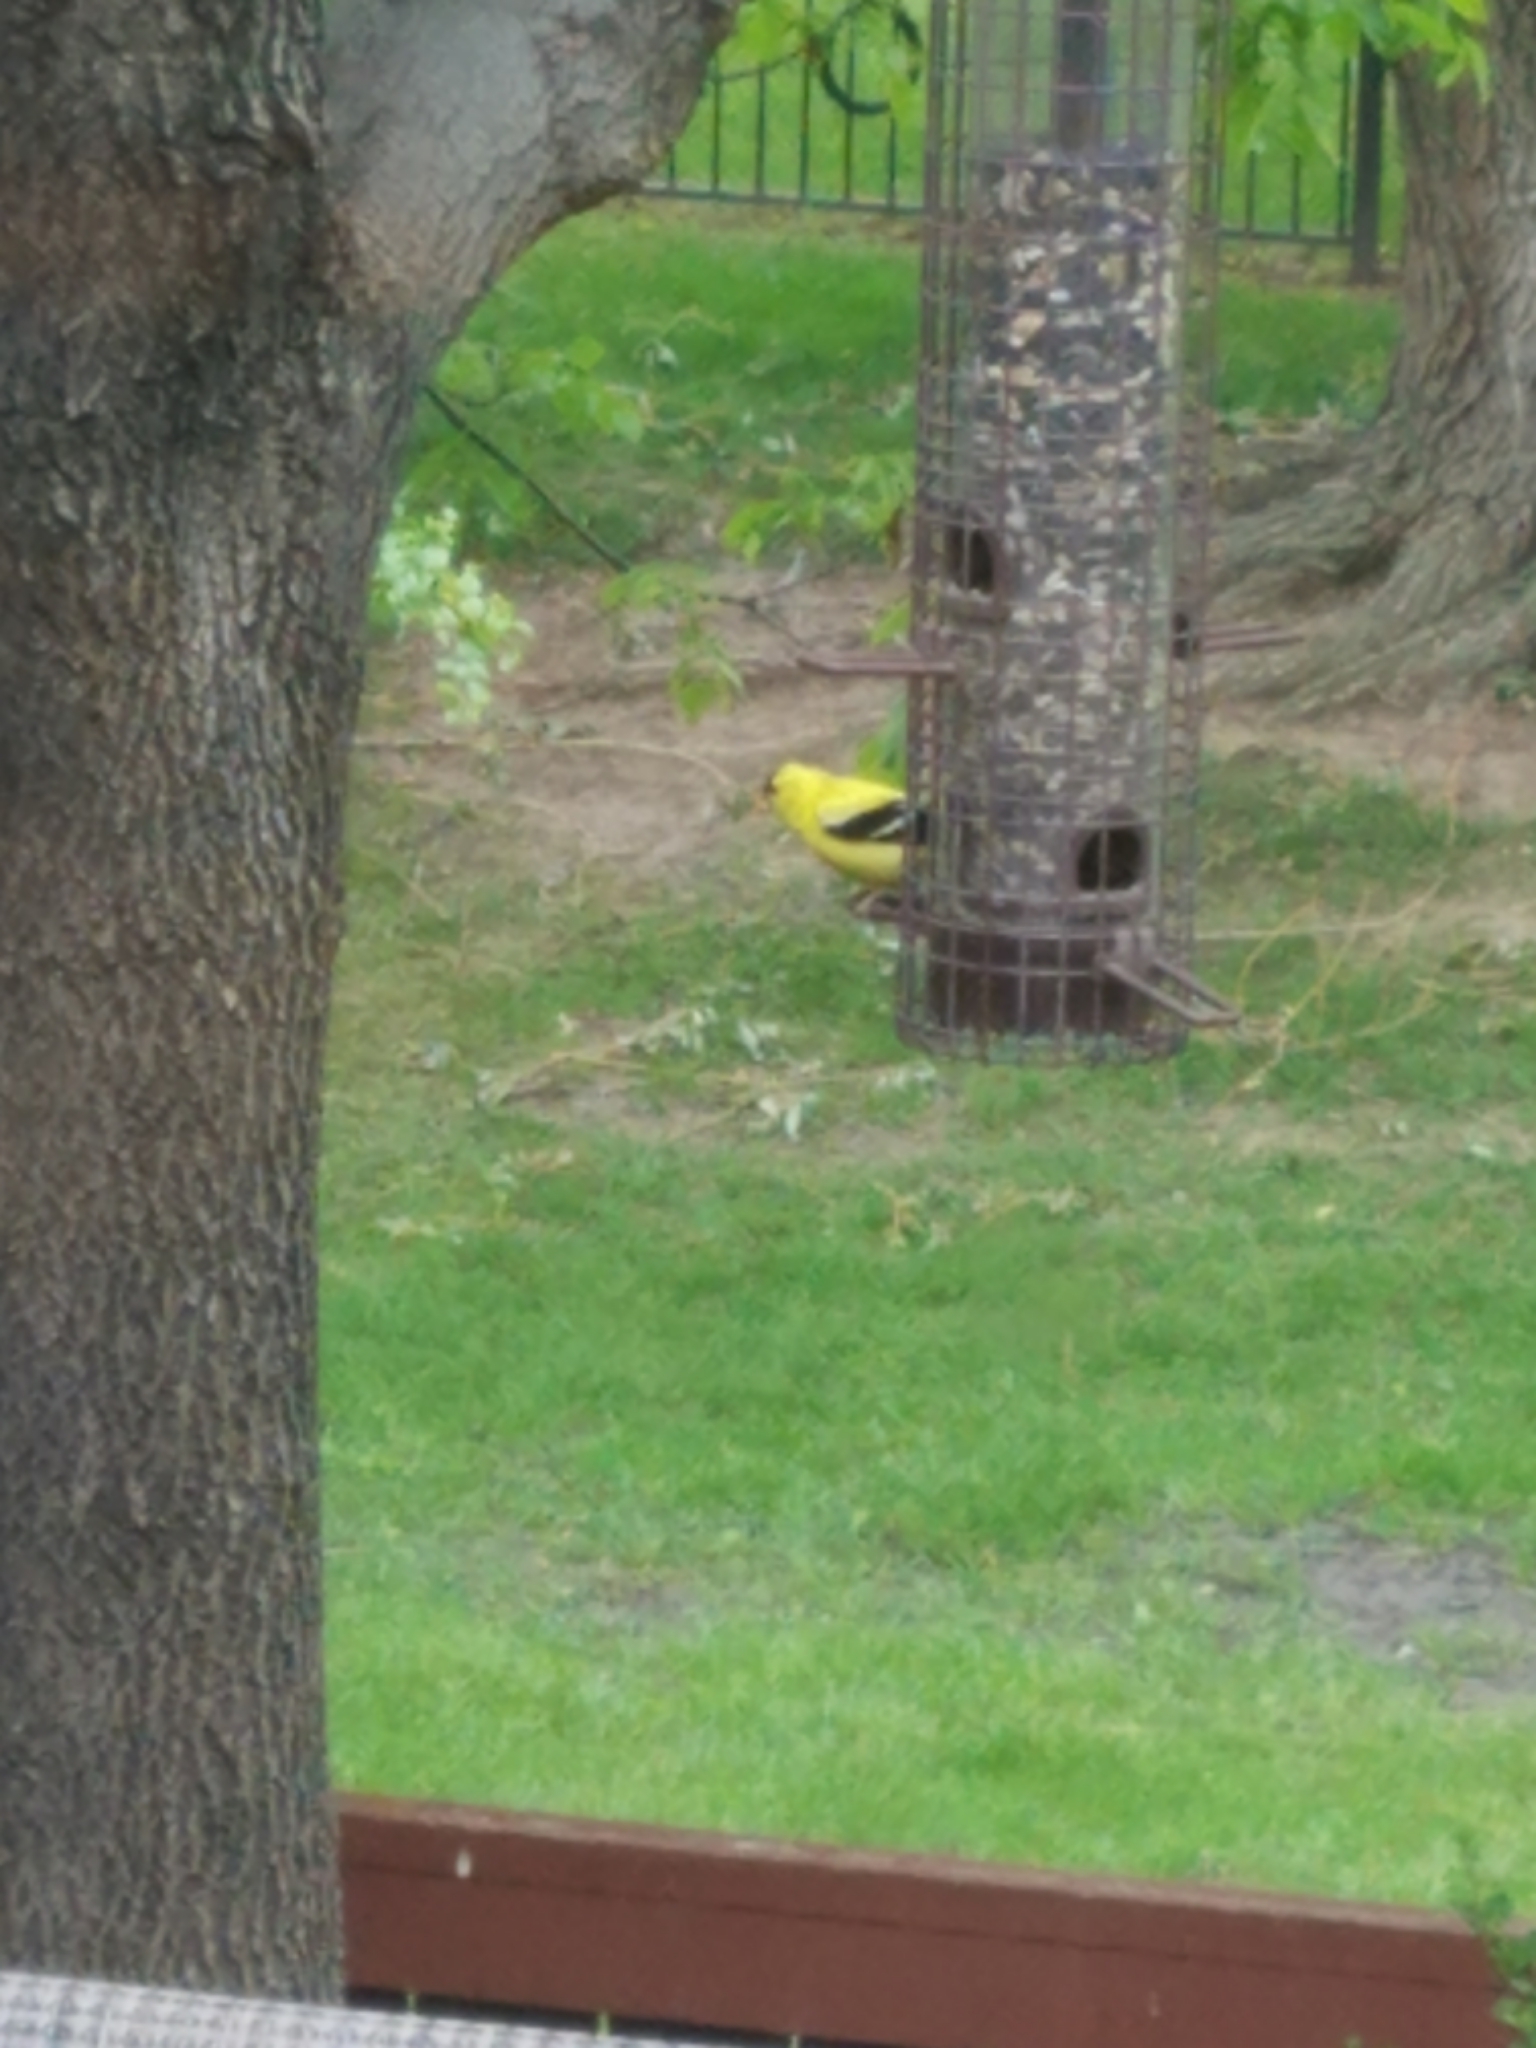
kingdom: Animalia
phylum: Chordata
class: Aves
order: Passeriformes
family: Fringillidae
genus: Spinus
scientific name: Spinus tristis
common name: American goldfinch
